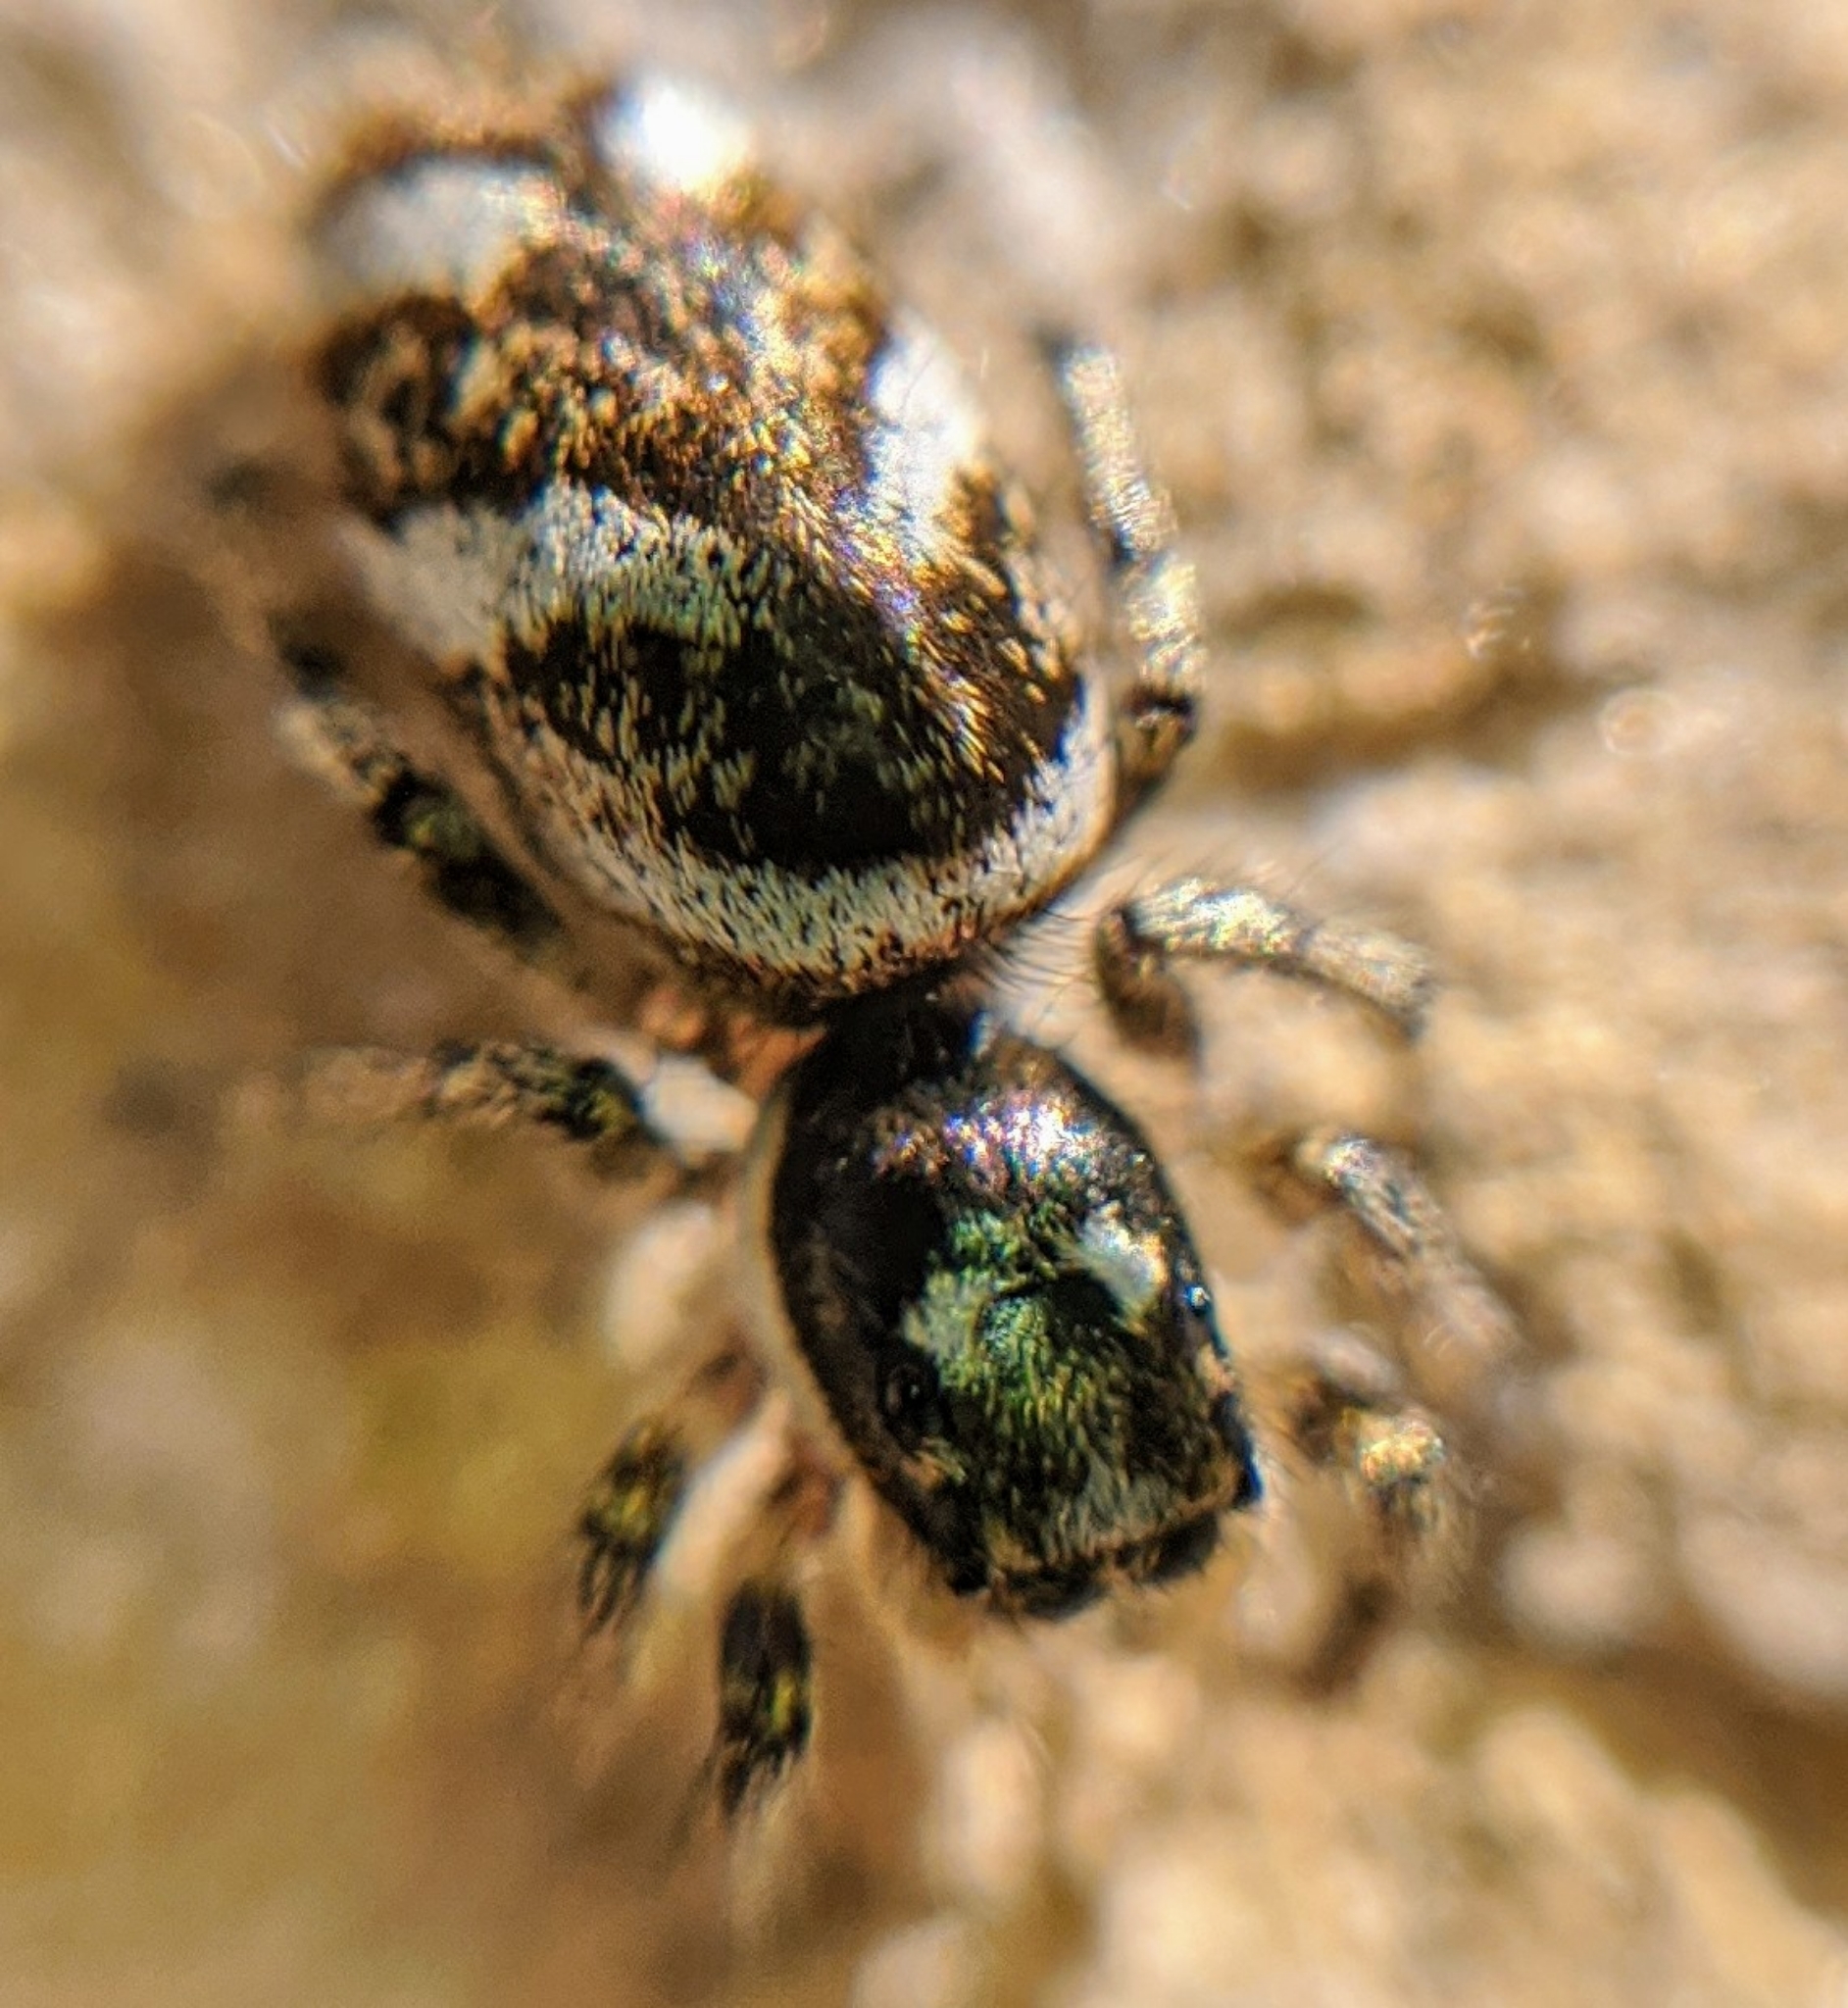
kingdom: Animalia
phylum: Arthropoda
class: Arachnida
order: Araneae
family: Salticidae
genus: Salticus
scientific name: Salticus scenicus
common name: Zebra jumper
